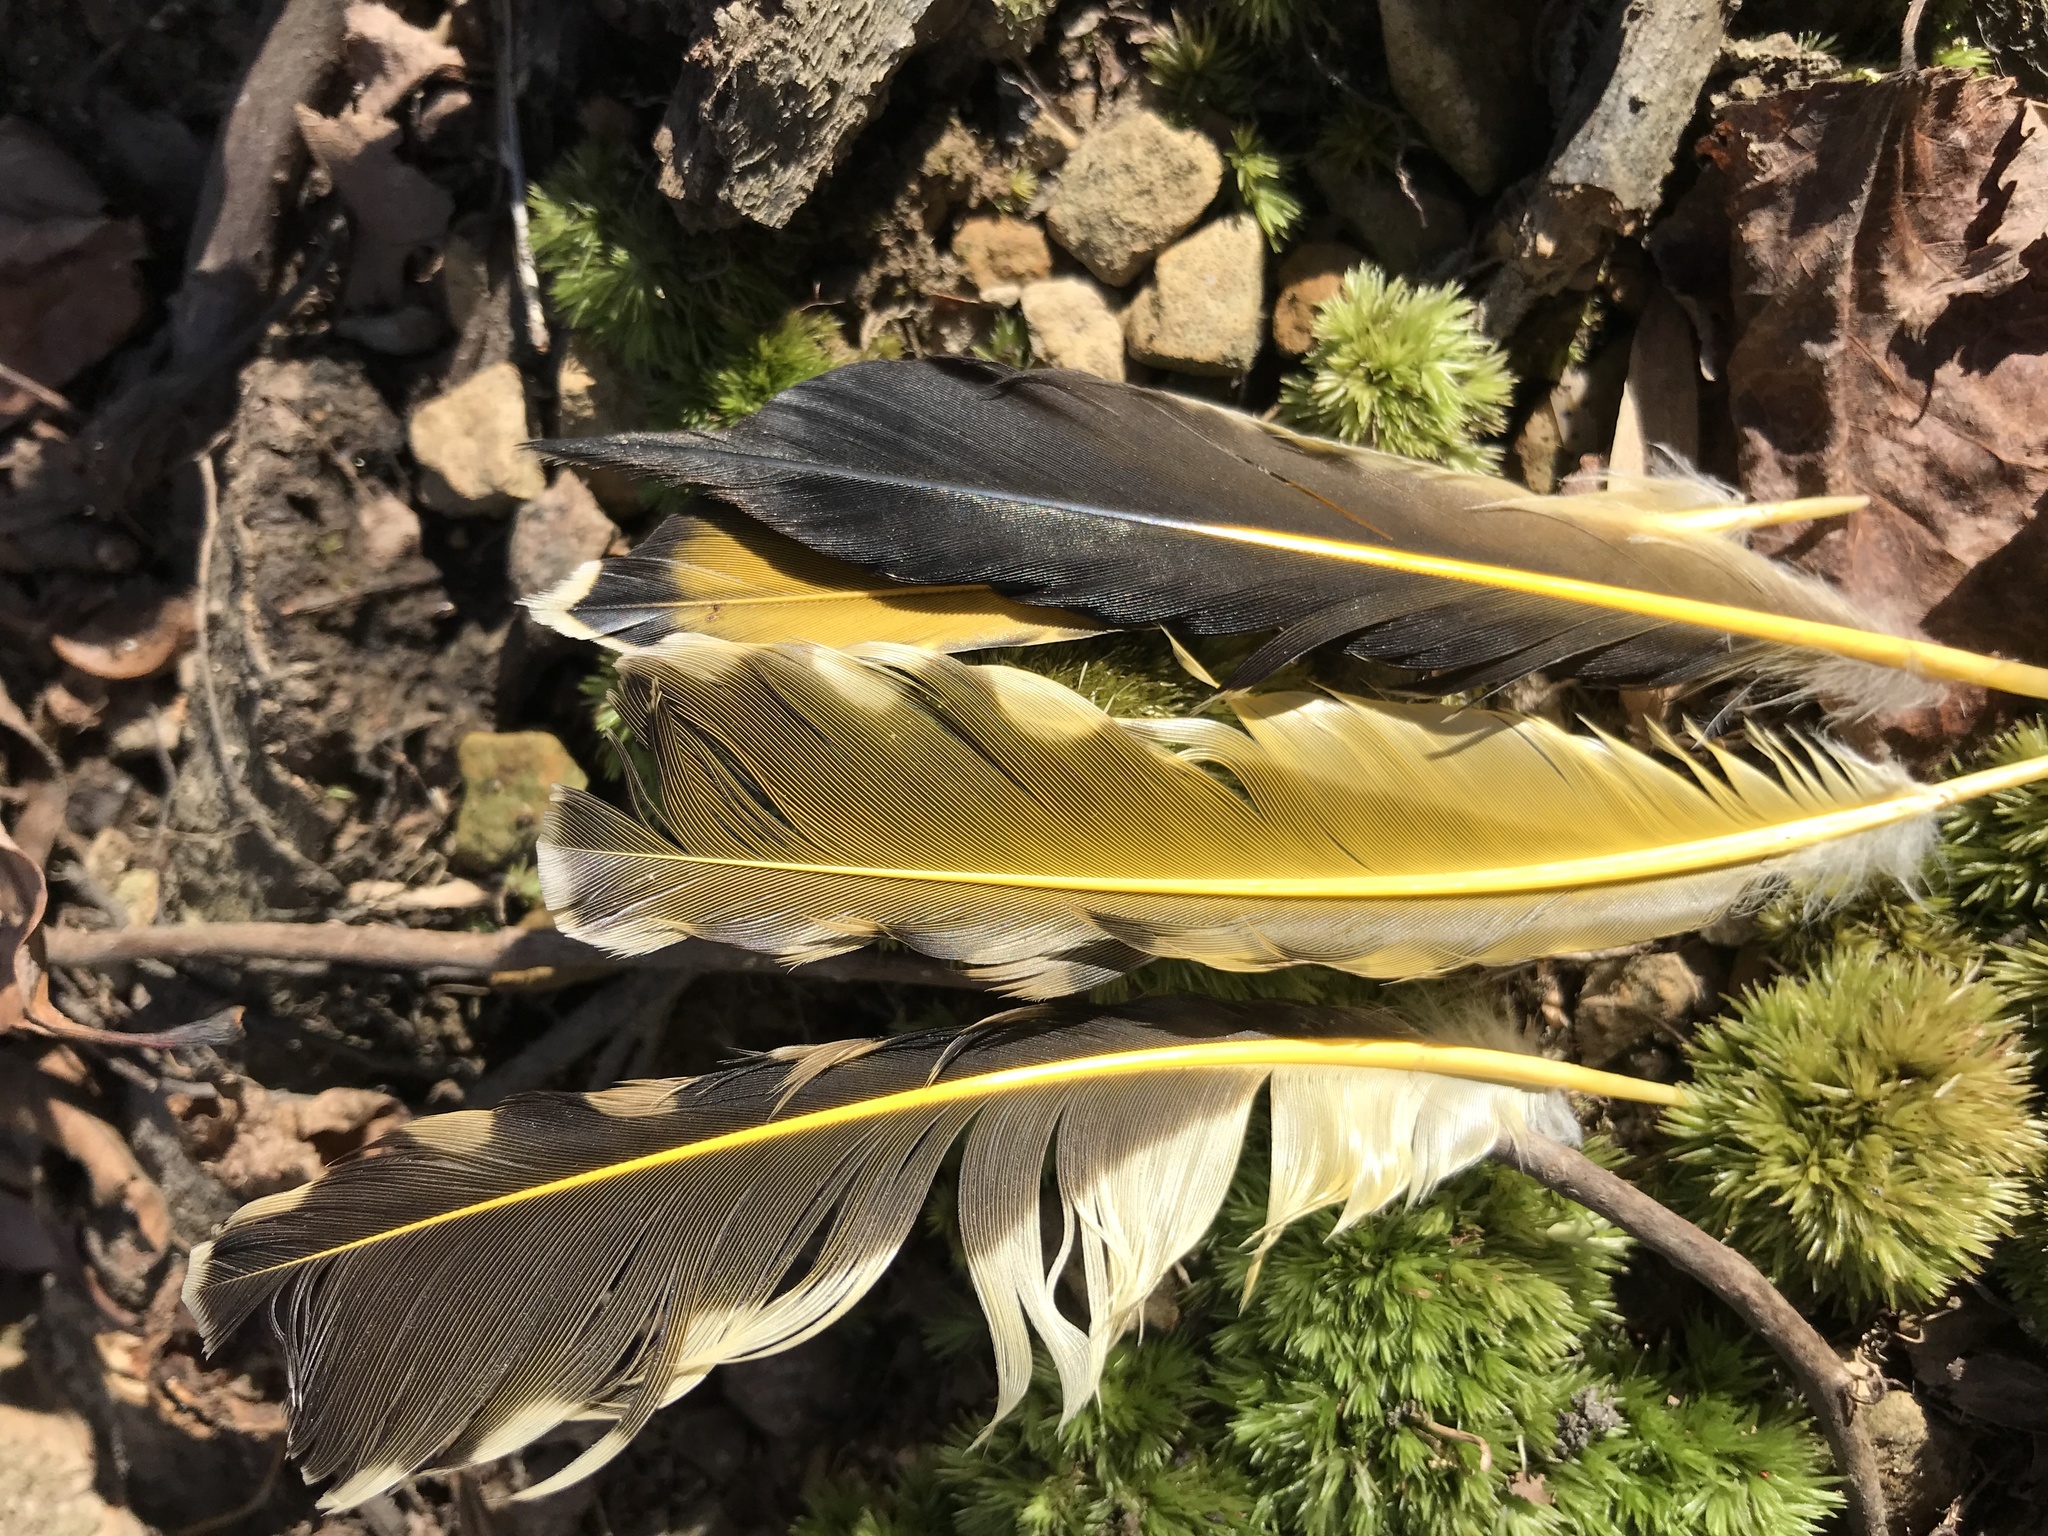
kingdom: Animalia
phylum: Chordata
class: Aves
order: Piciformes
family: Picidae
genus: Colaptes
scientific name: Colaptes auratus
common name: Northern flicker
